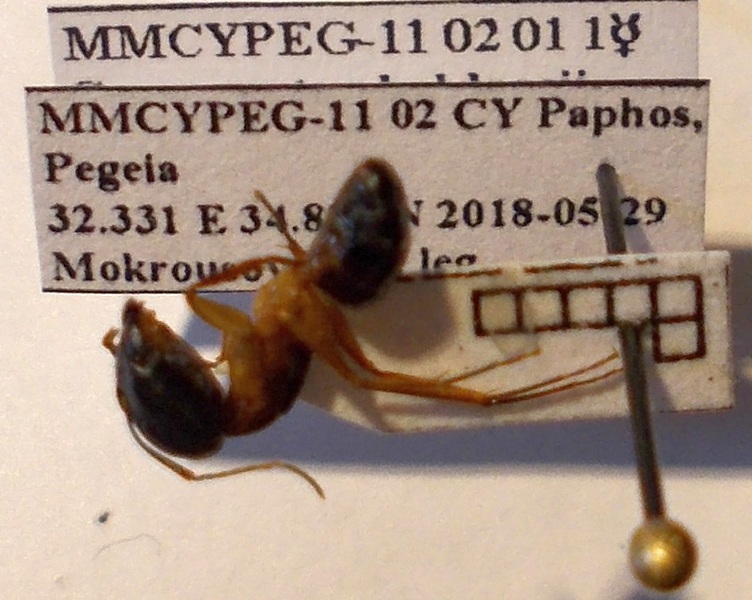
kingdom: Animalia
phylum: Arthropoda
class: Insecta
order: Hymenoptera
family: Formicidae
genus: Camponotus
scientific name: Camponotus baldaccii
